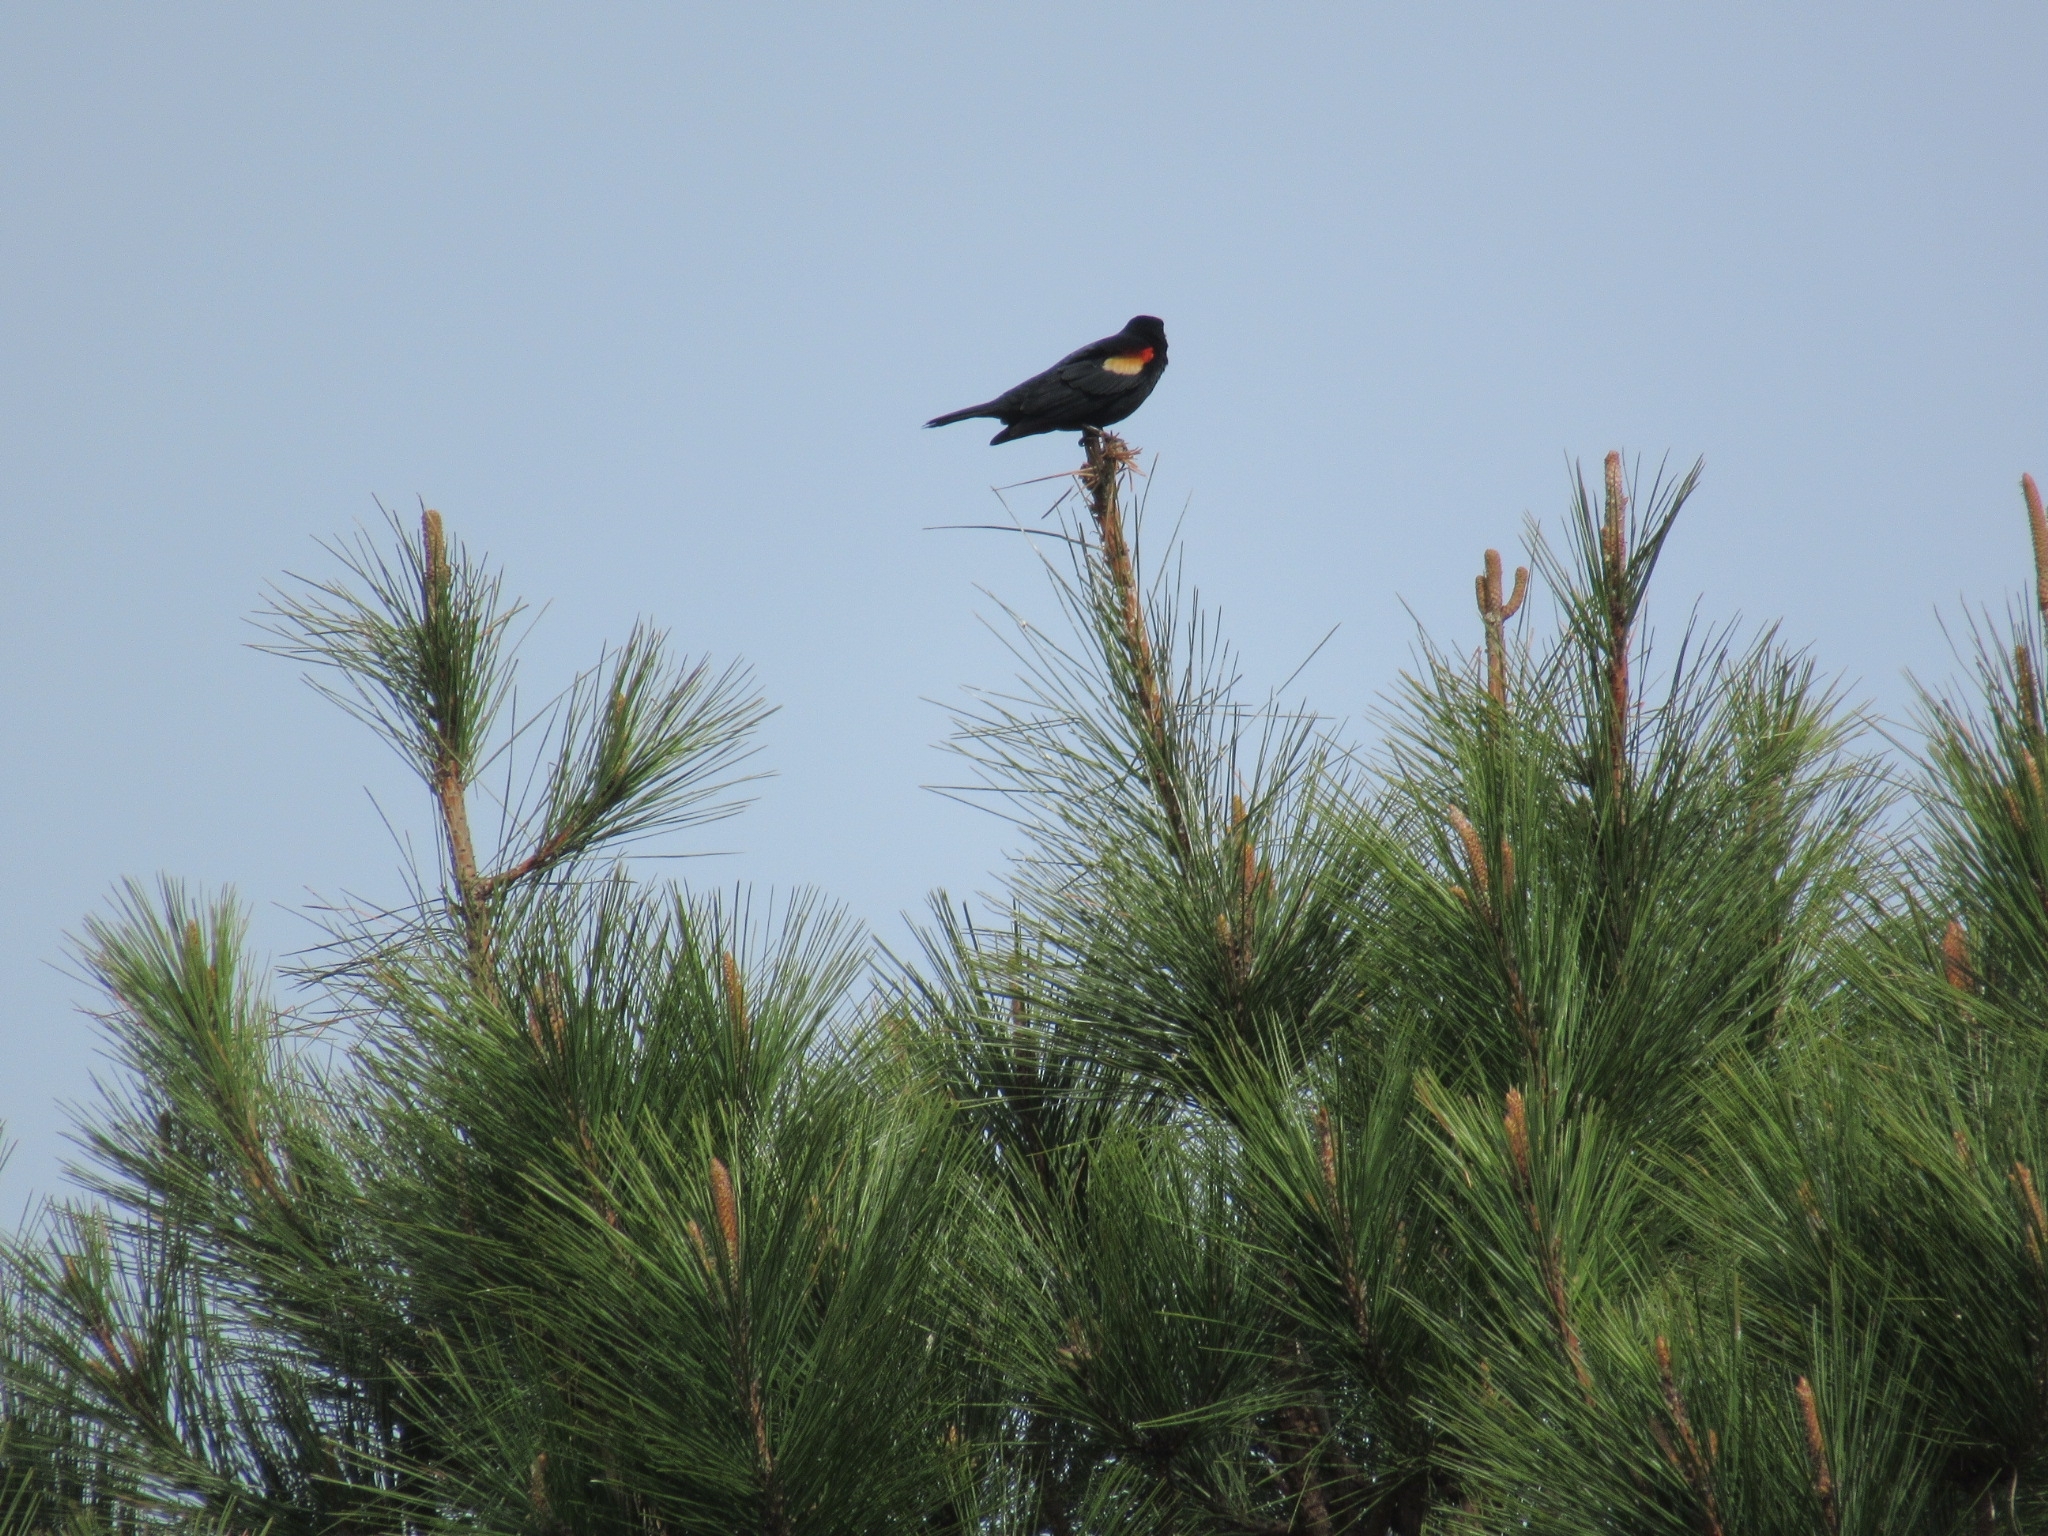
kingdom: Animalia
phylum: Chordata
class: Aves
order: Passeriformes
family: Icteridae
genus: Agelaius
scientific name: Agelaius phoeniceus
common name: Red-winged blackbird
